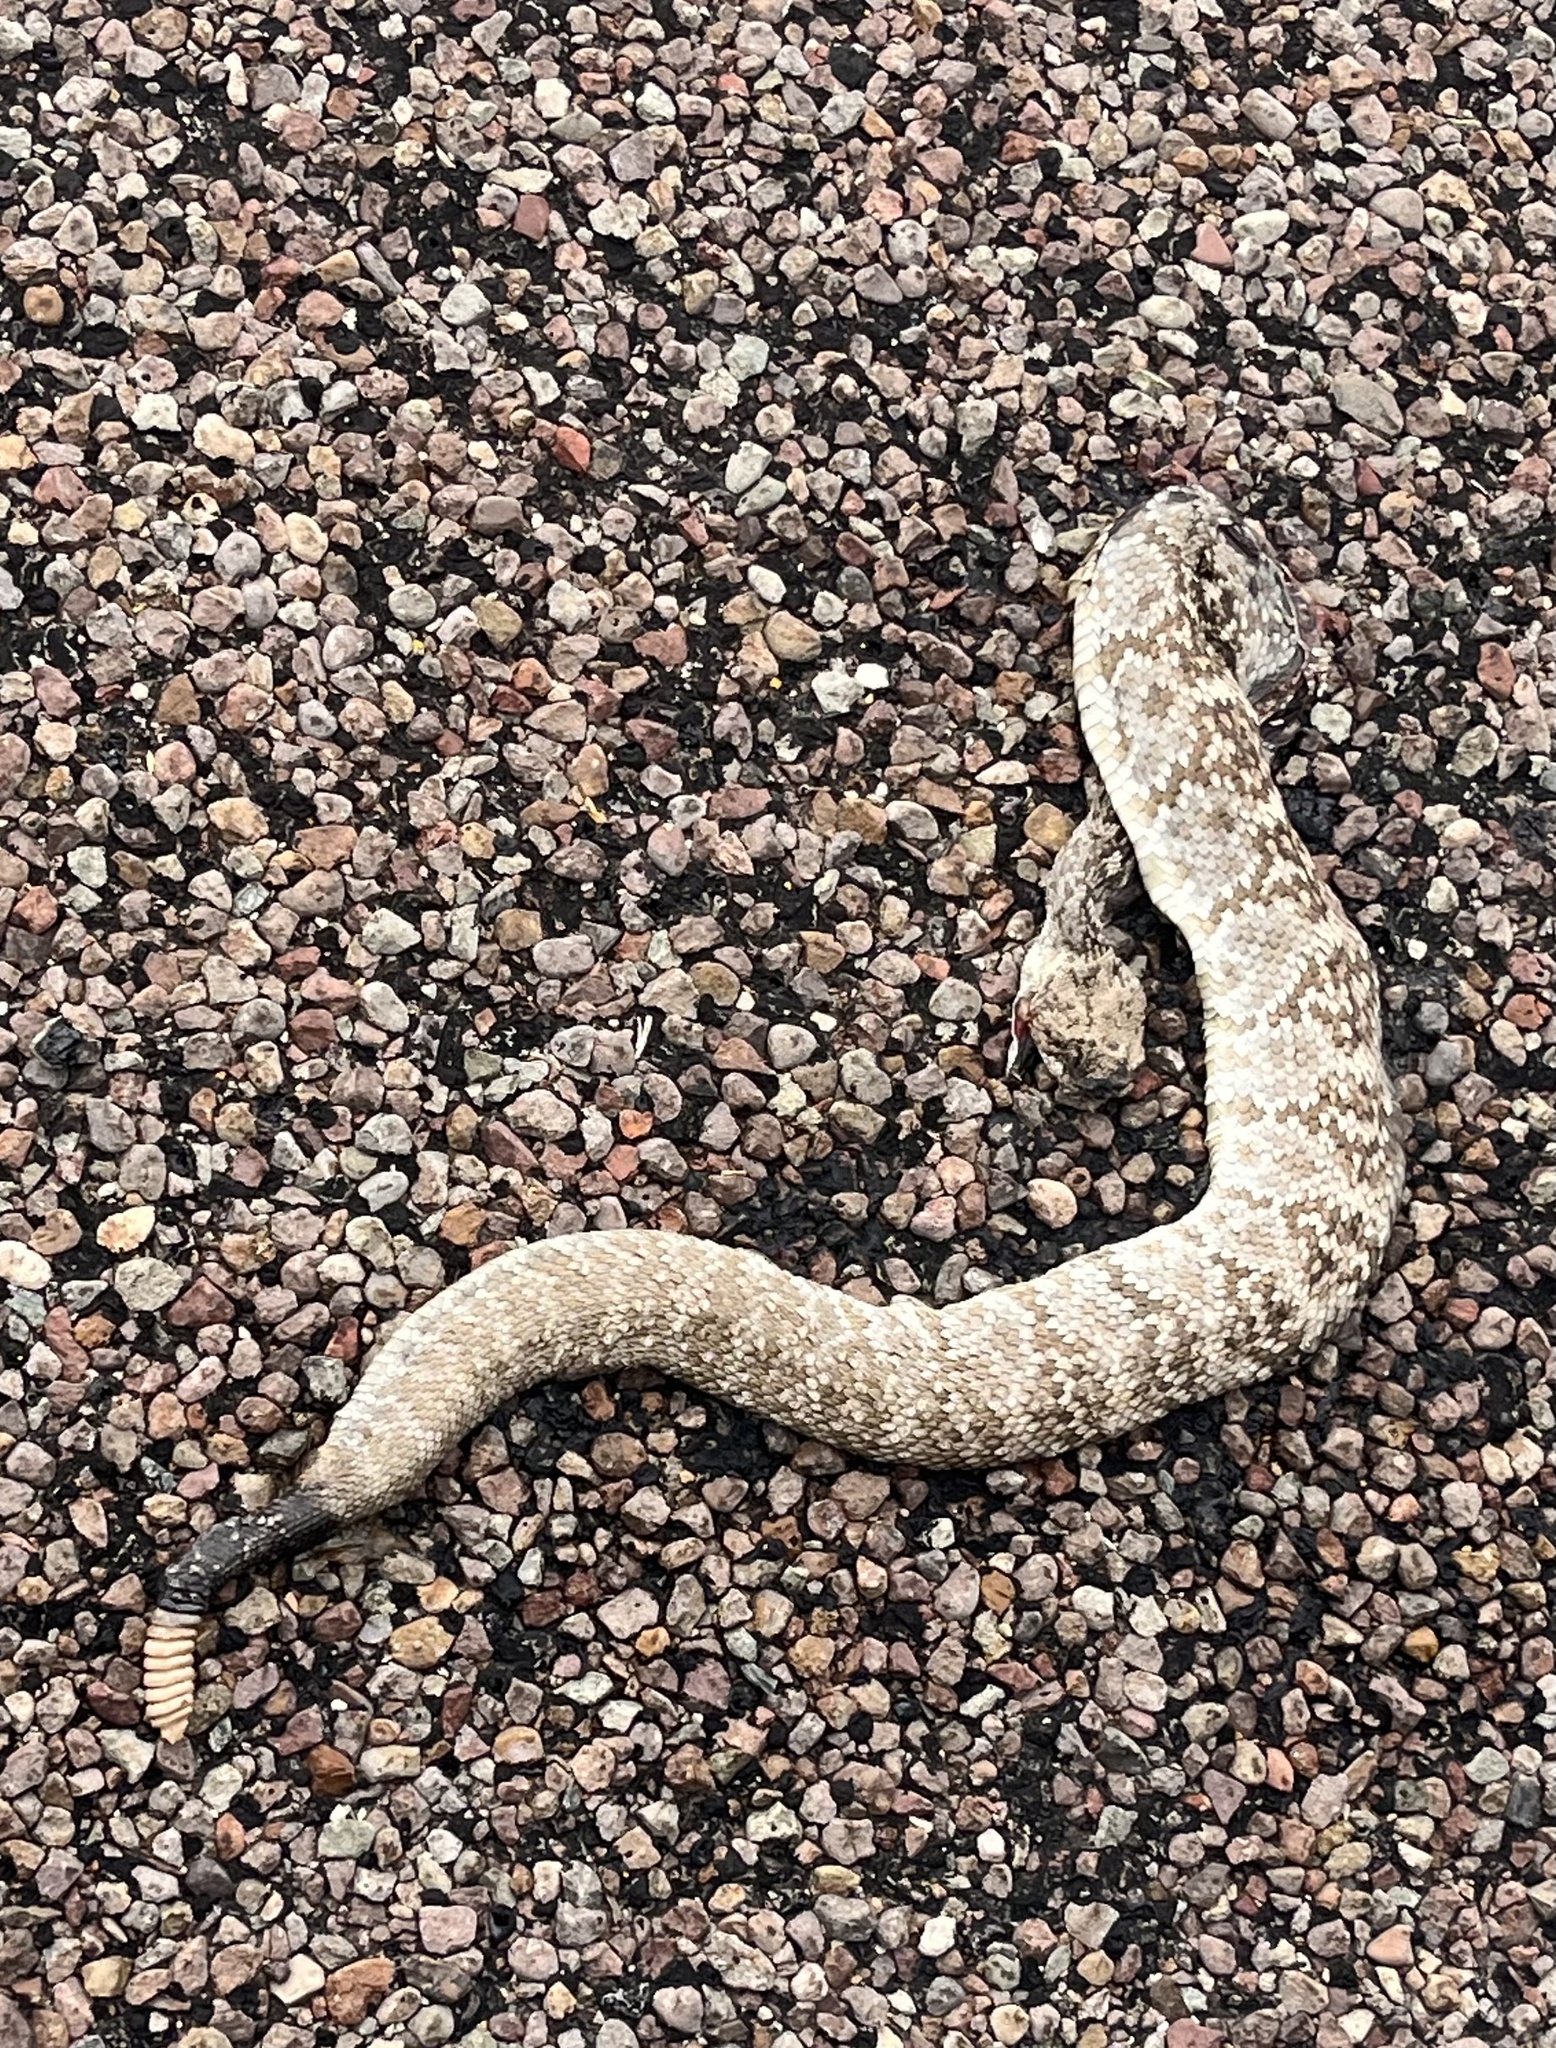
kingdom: Animalia
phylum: Chordata
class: Squamata
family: Viperidae
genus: Crotalus
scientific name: Crotalus ornatus
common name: Black-tailed rattlesnake
